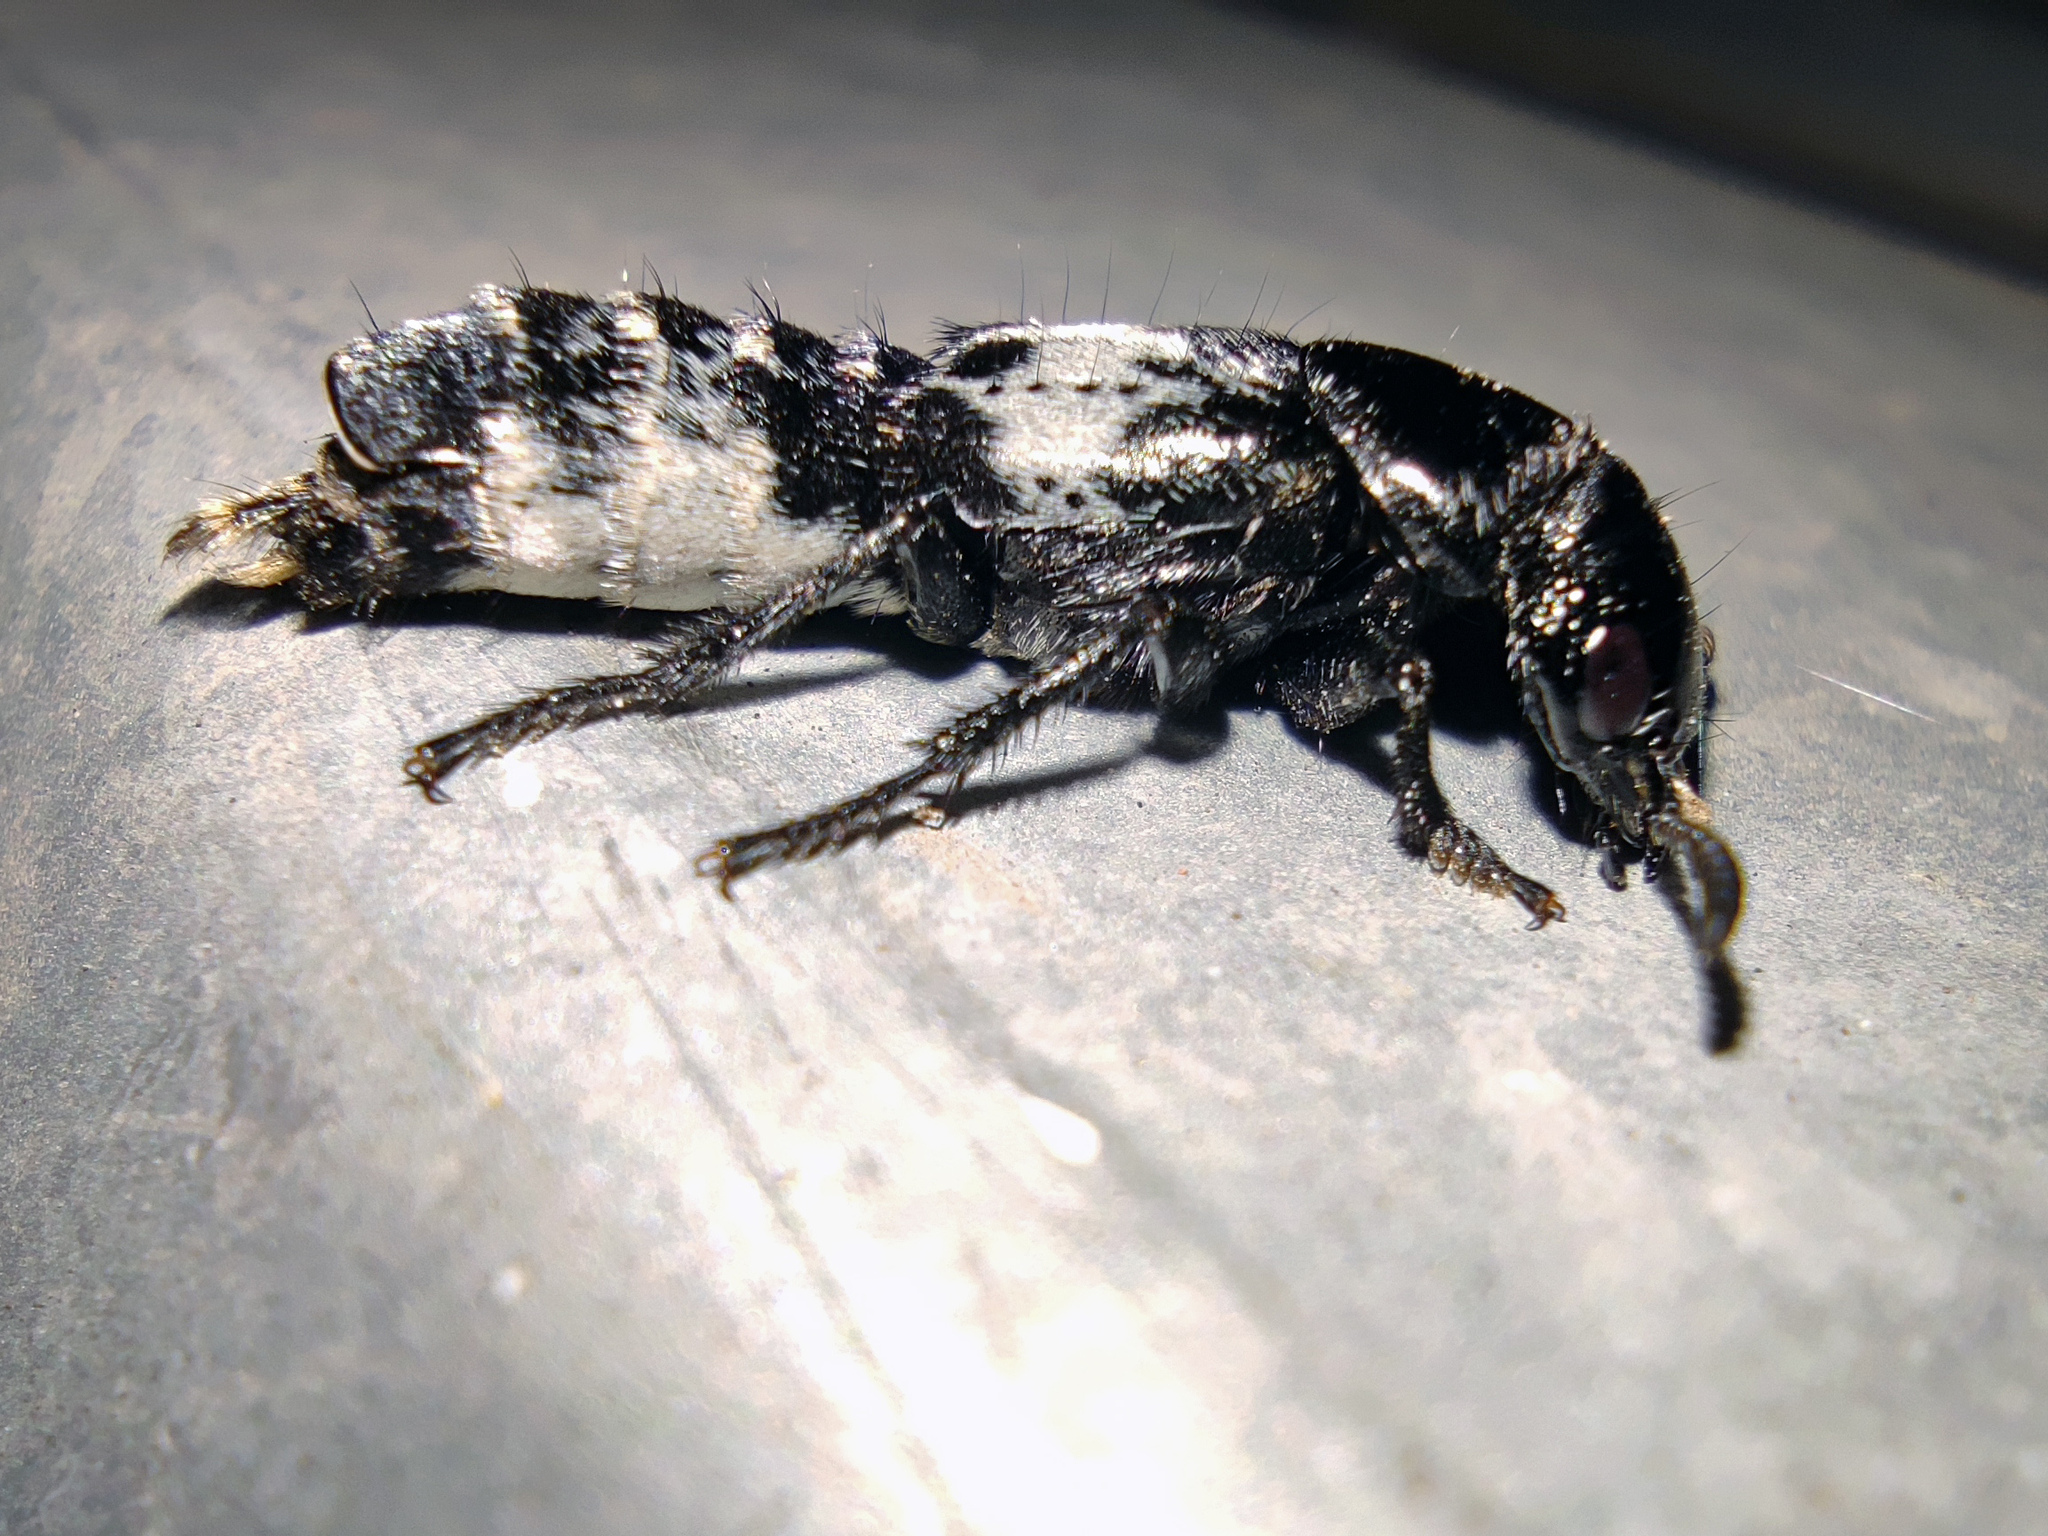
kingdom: Animalia
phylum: Arthropoda
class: Insecta
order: Coleoptera
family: Staphylinidae
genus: Creophilus
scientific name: Creophilus maxillosus
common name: Hairy rove beetle
